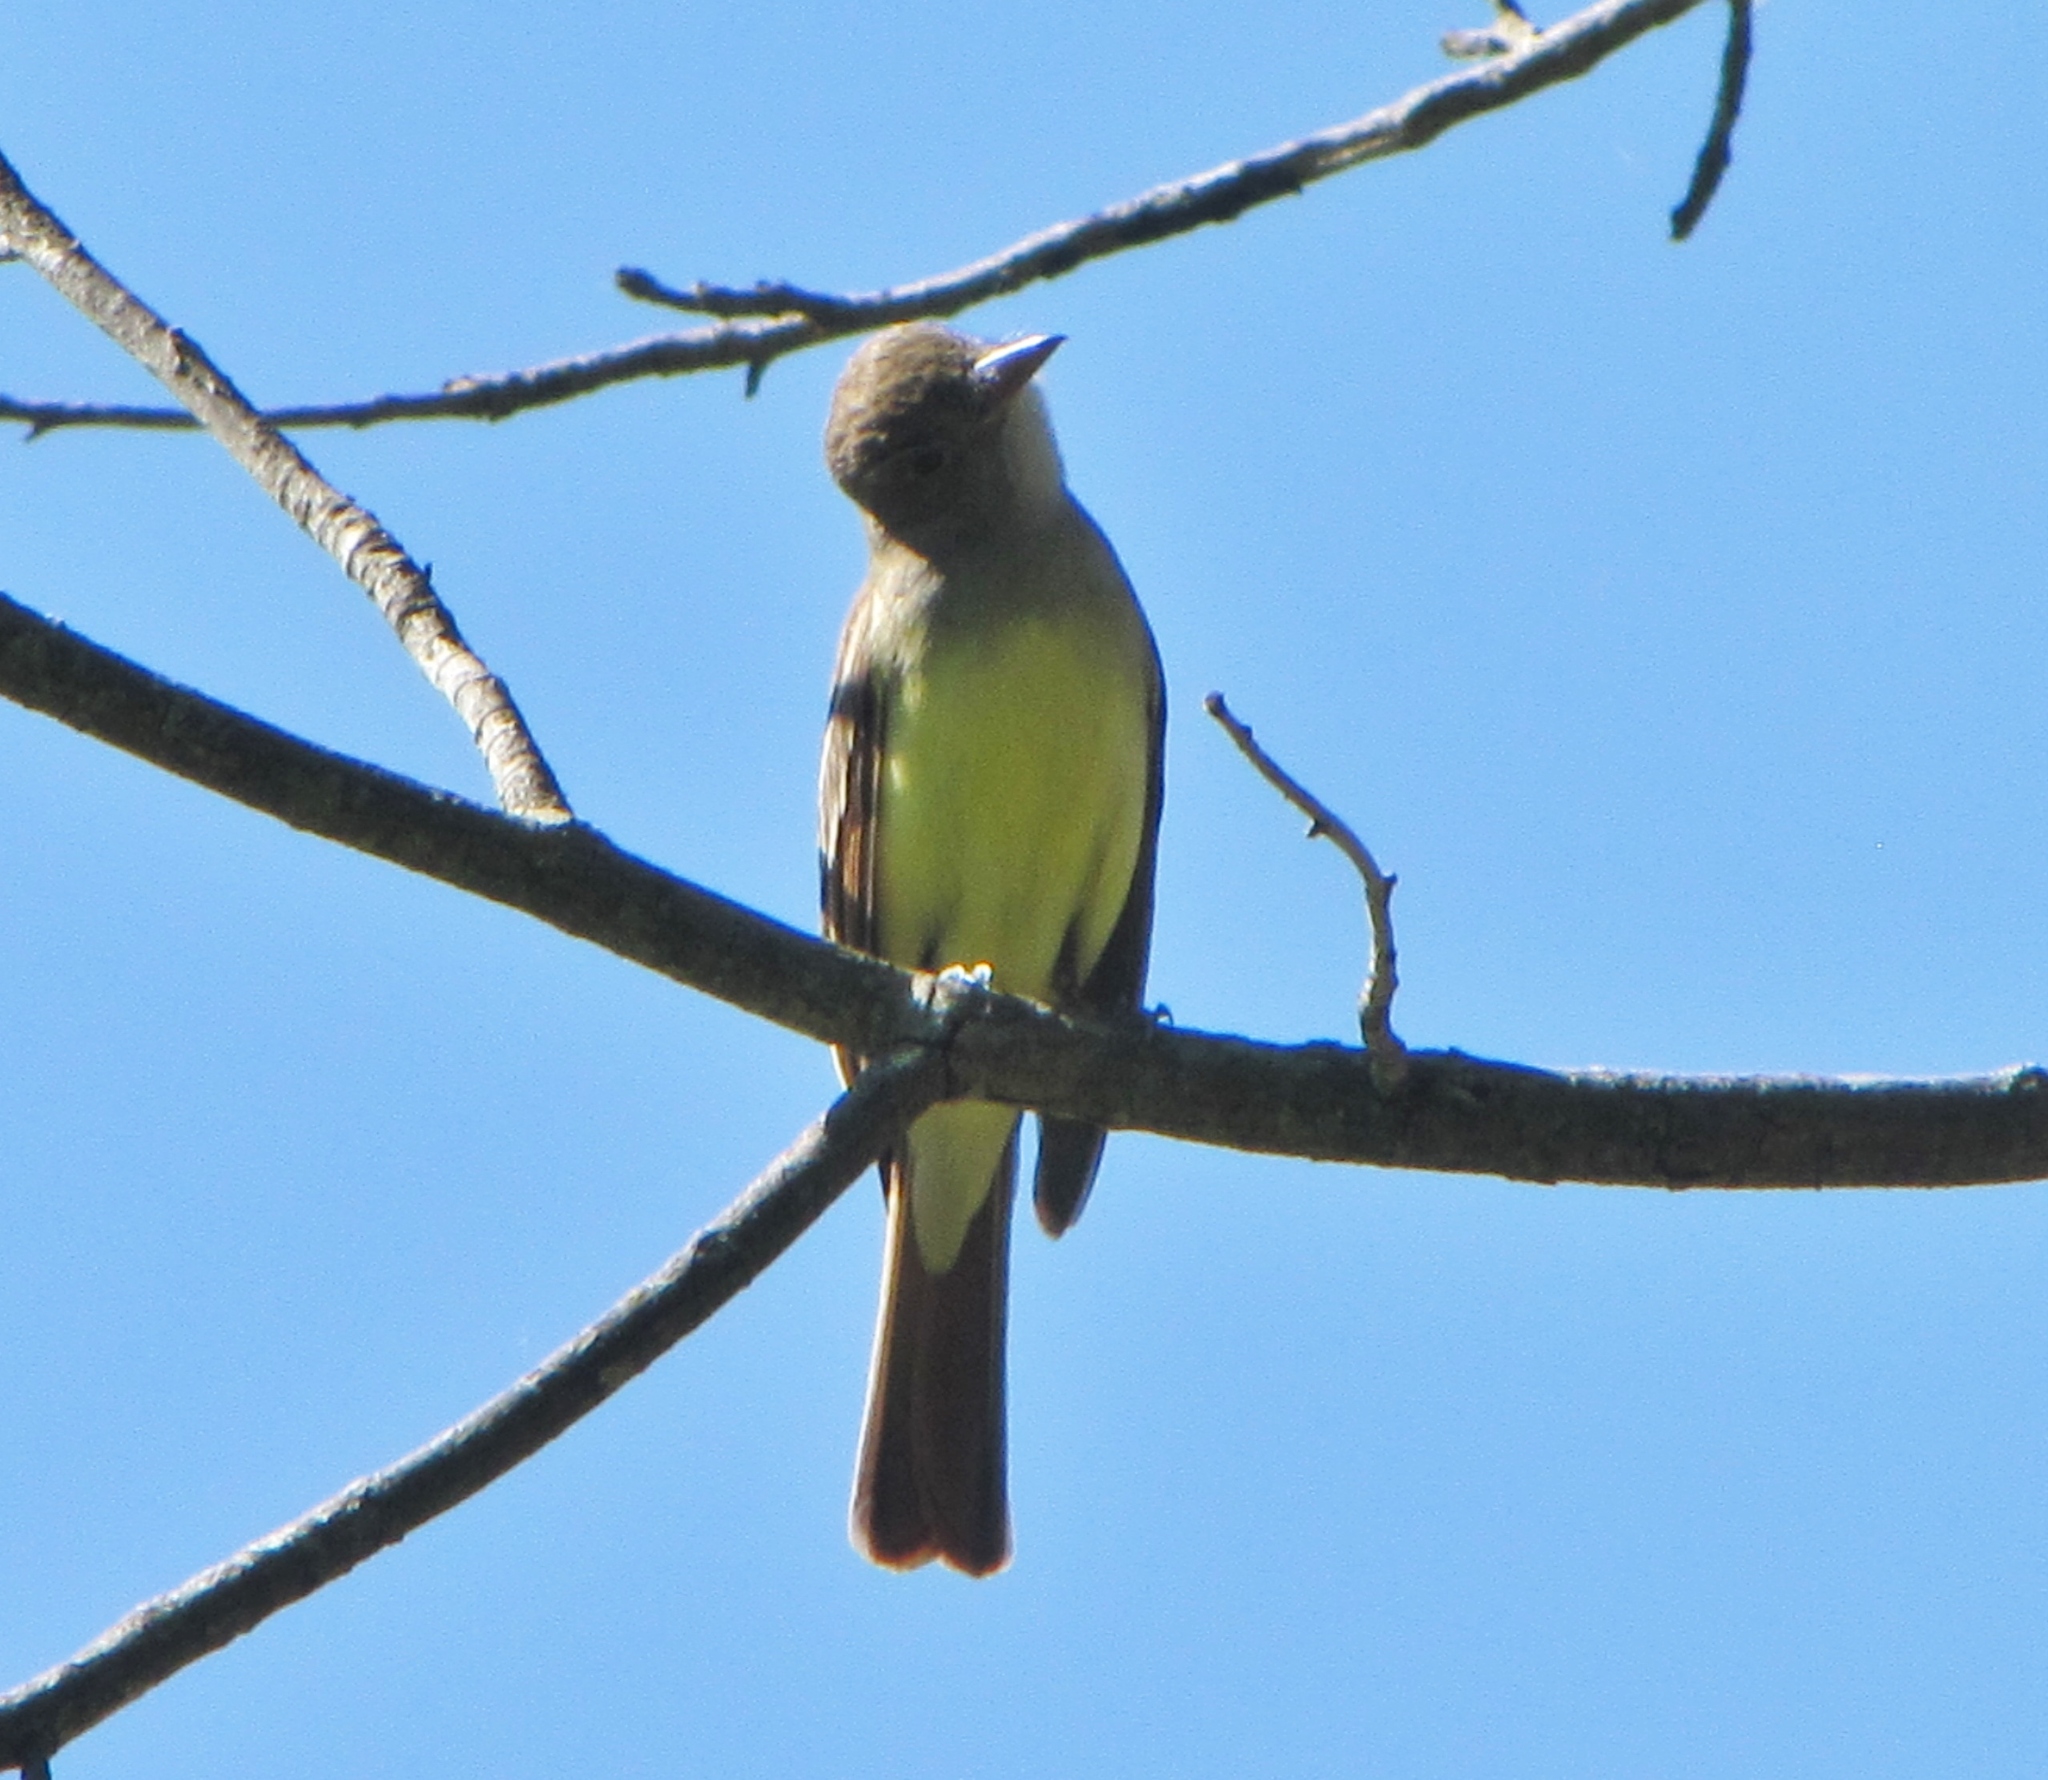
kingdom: Animalia
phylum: Chordata
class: Aves
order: Passeriformes
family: Tyrannidae
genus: Myiarchus
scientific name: Myiarchus crinitus
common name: Great crested flycatcher
